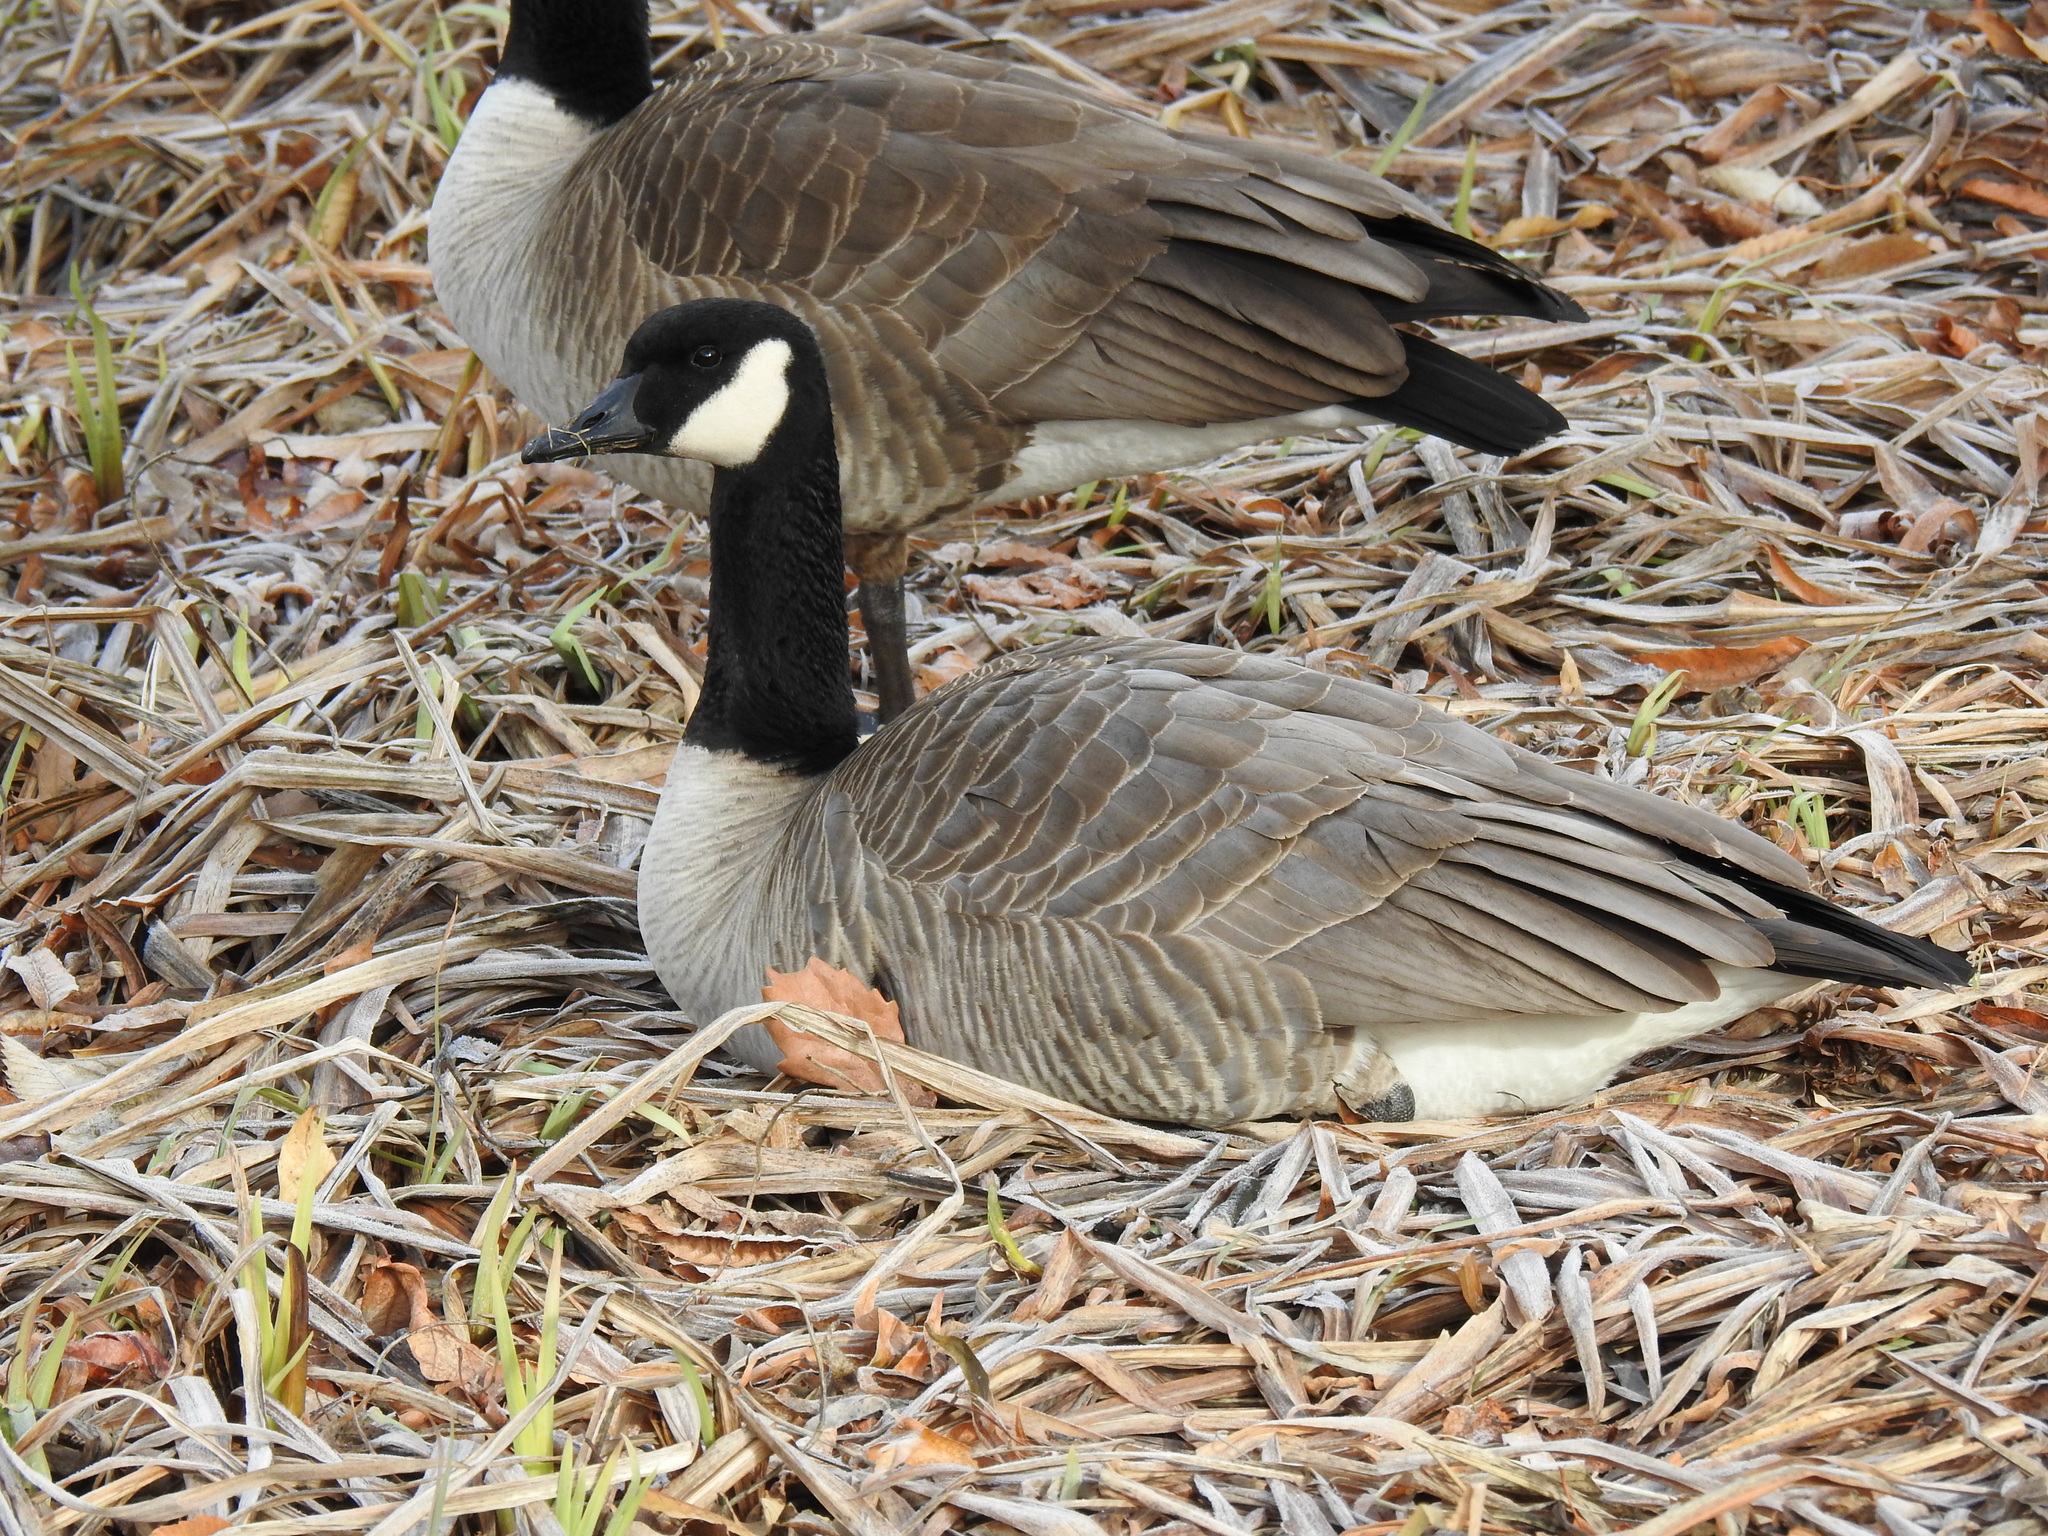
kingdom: Animalia
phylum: Chordata
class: Aves
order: Anseriformes
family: Anatidae
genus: Branta
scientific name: Branta canadensis
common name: Canada goose
